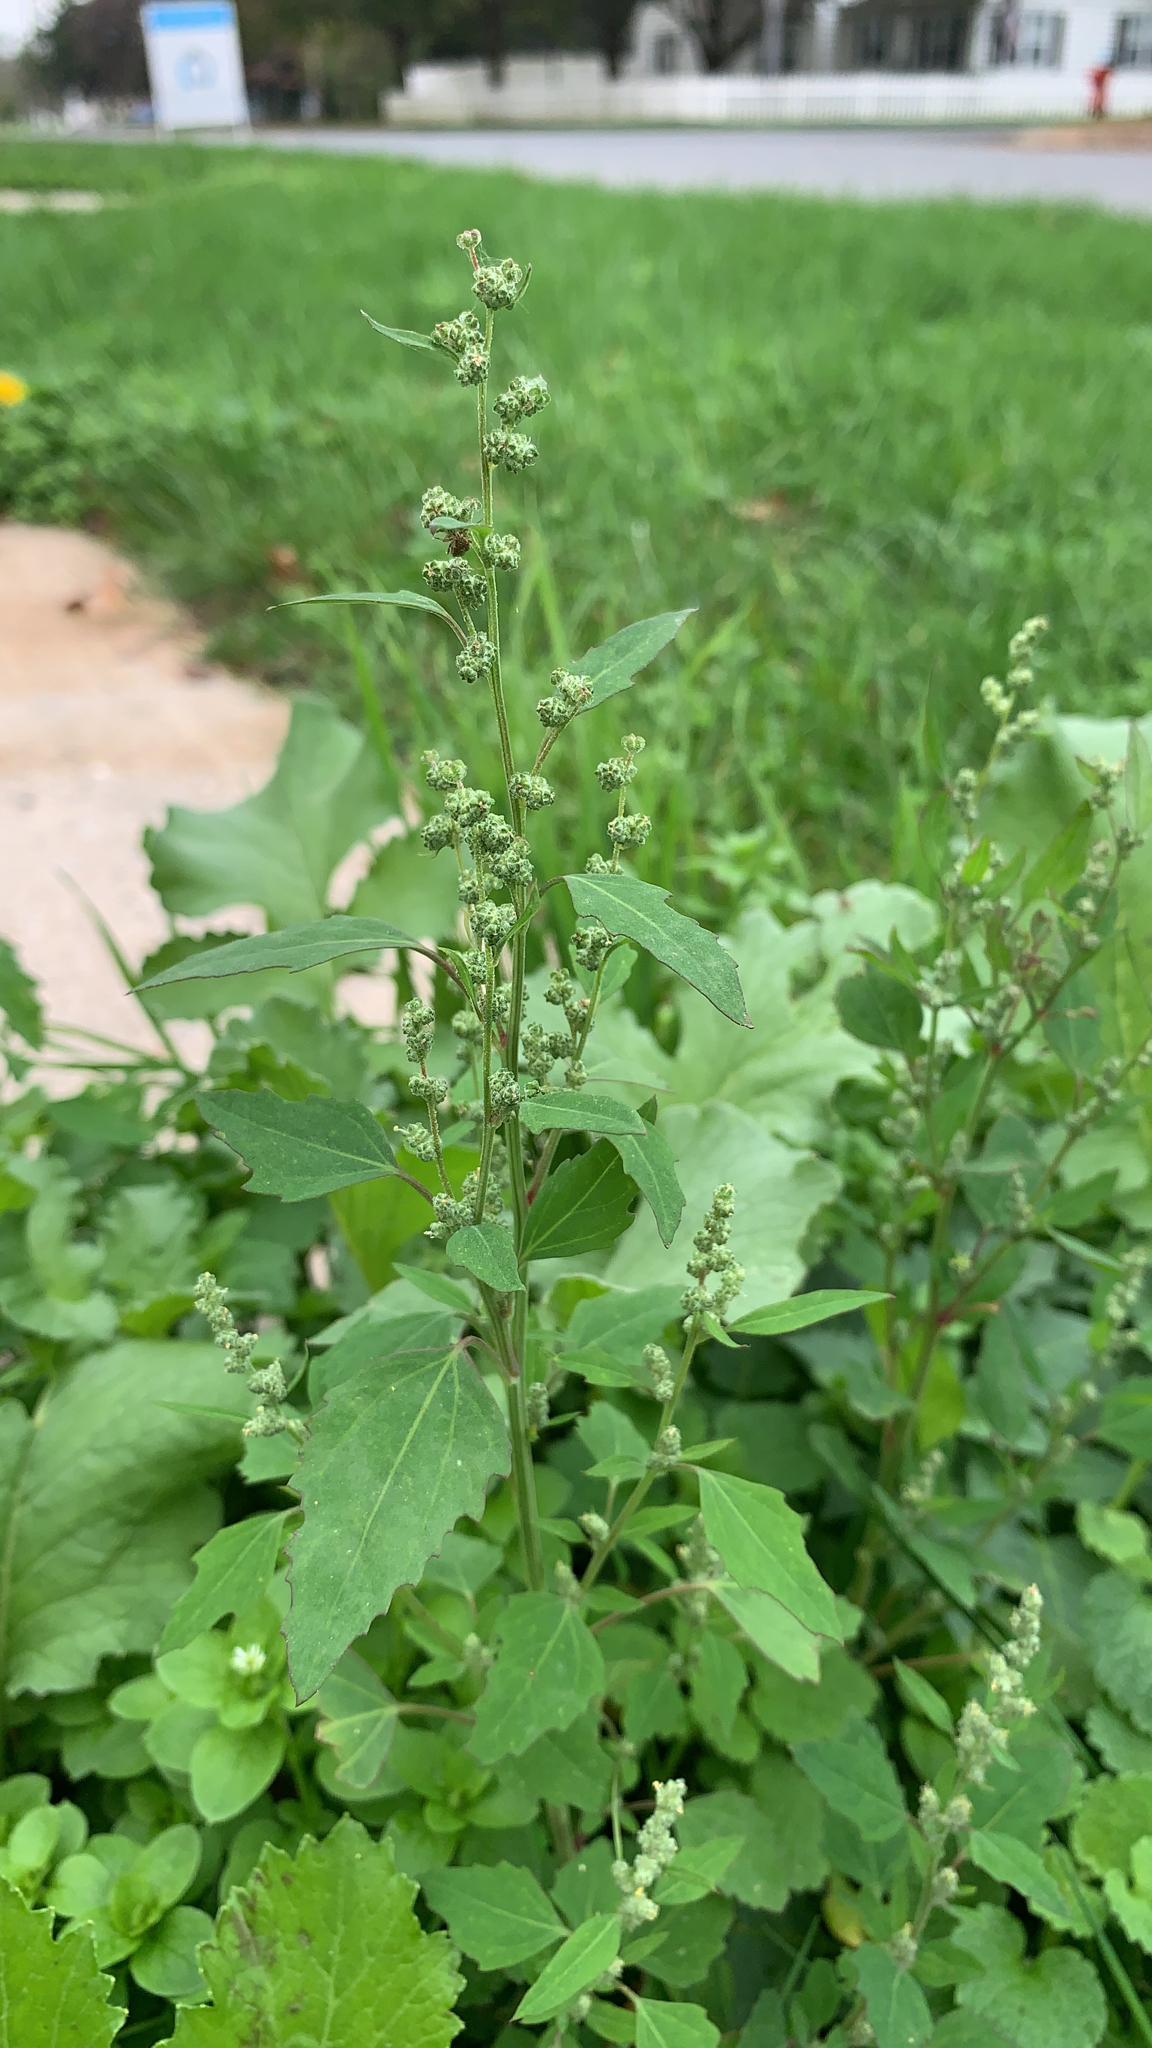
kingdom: Plantae
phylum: Tracheophyta
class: Magnoliopsida
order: Caryophyllales
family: Amaranthaceae
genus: Chenopodium
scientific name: Chenopodium album
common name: Fat-hen
